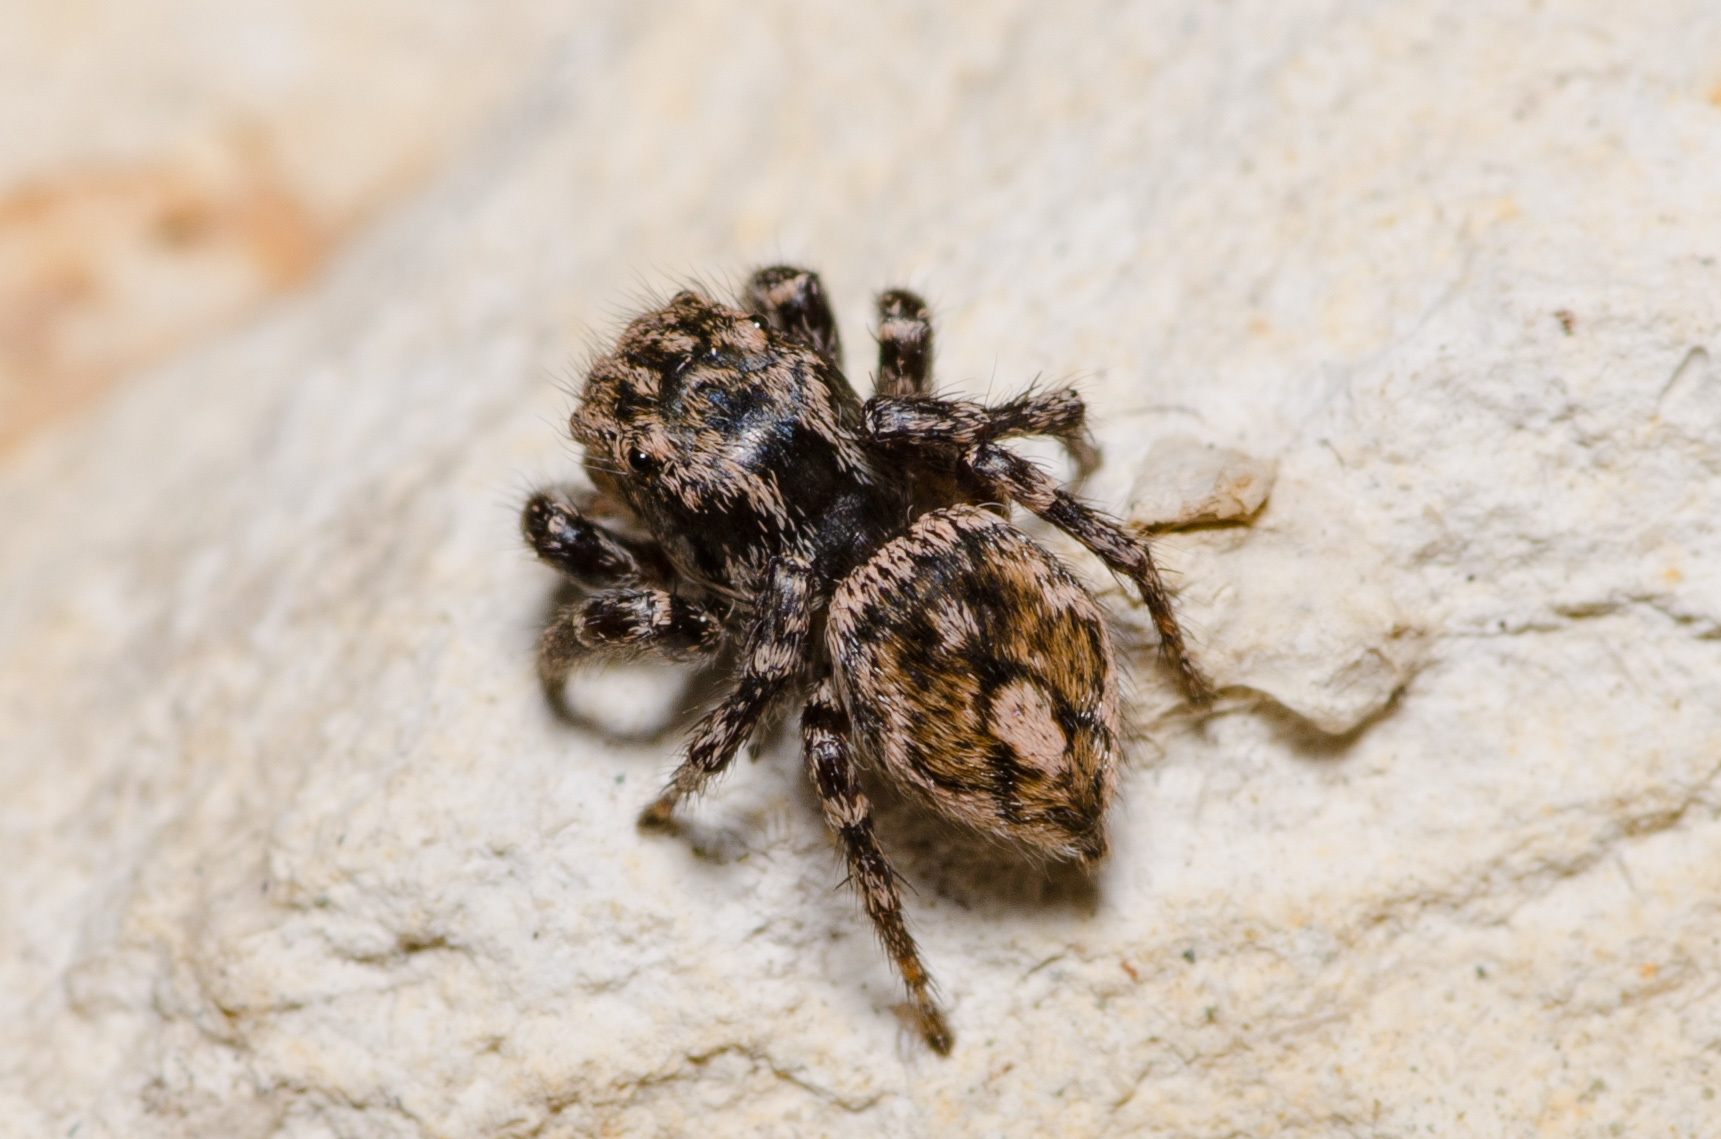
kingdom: Animalia
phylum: Arthropoda
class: Arachnida
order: Araneae
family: Salticidae
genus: Habronattus
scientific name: Habronattus fallax
